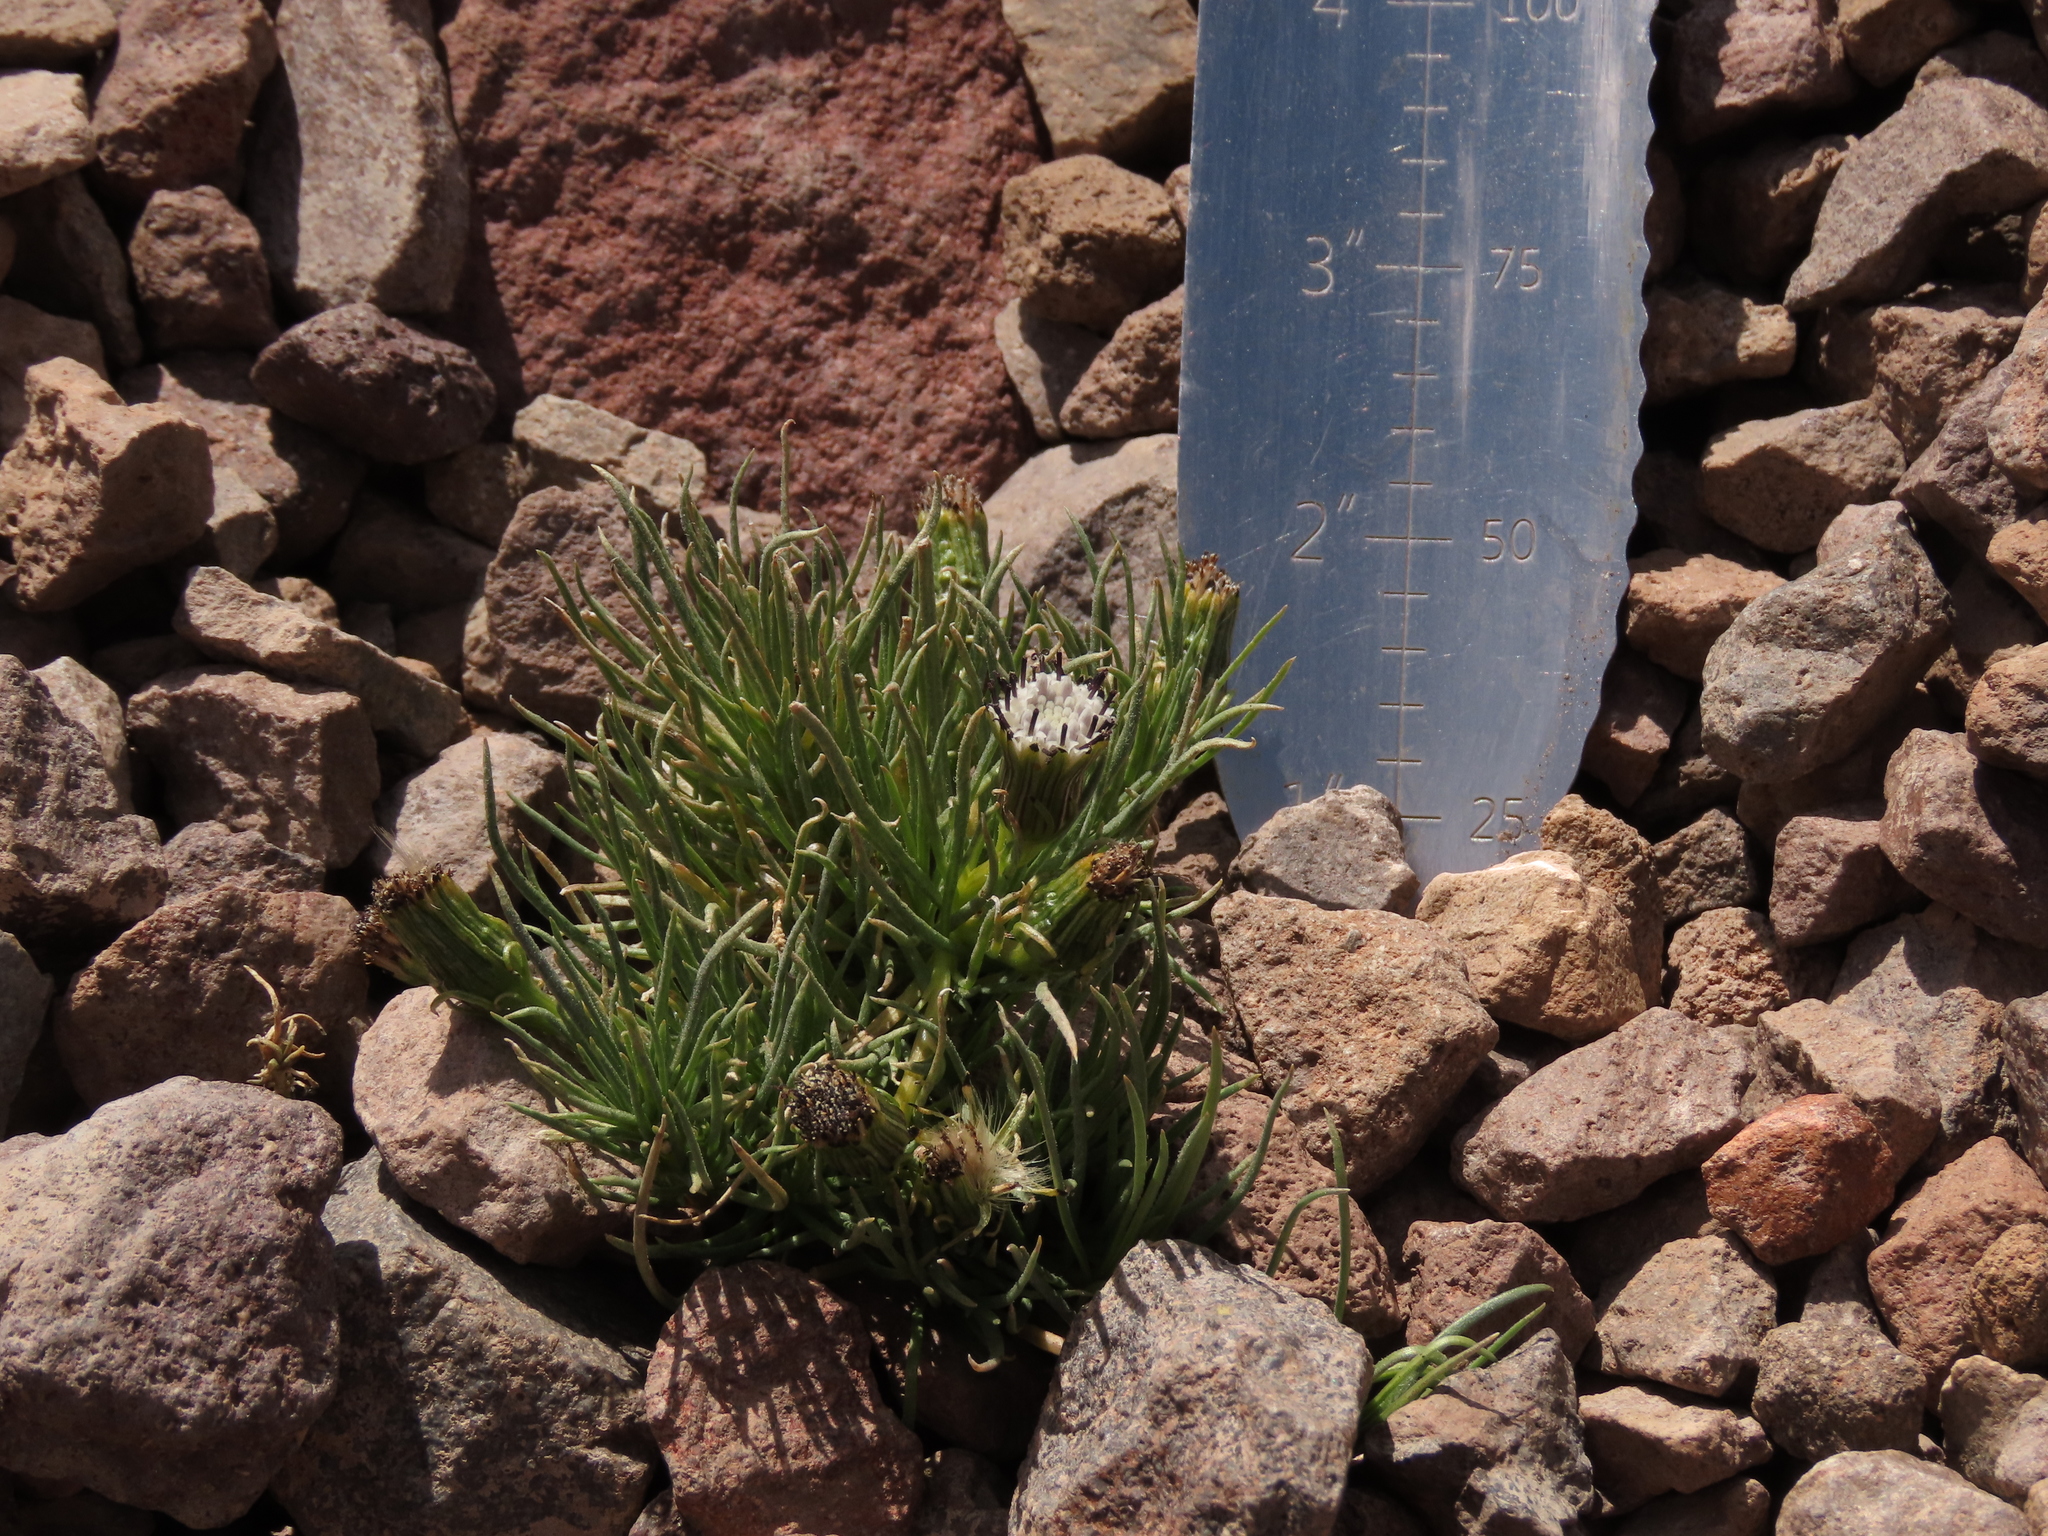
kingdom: Plantae
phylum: Tracheophyta
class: Magnoliopsida
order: Asterales
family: Asteraceae
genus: Senecio
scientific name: Senecio scorzonerifolius
